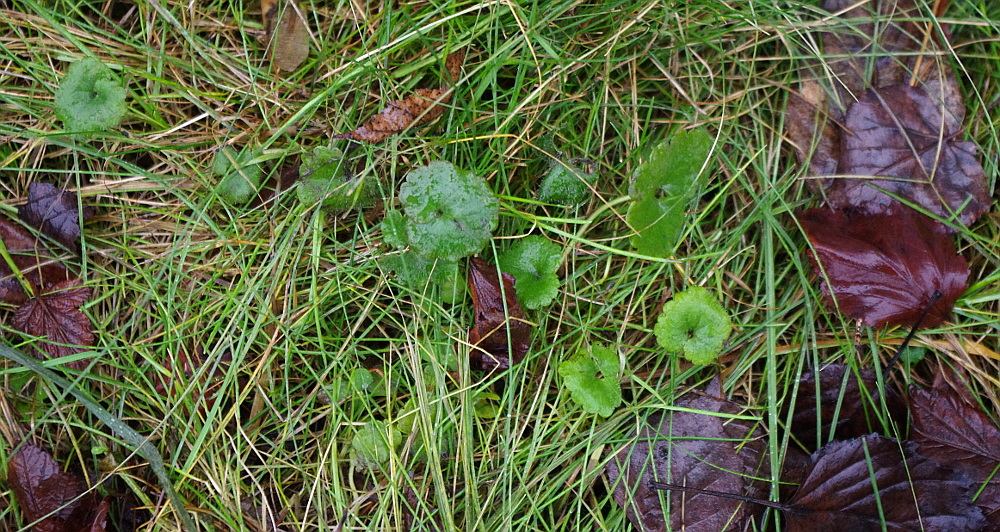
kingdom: Plantae
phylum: Tracheophyta
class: Magnoliopsida
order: Lamiales
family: Lamiaceae
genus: Glechoma
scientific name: Glechoma hederacea
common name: Ground ivy
